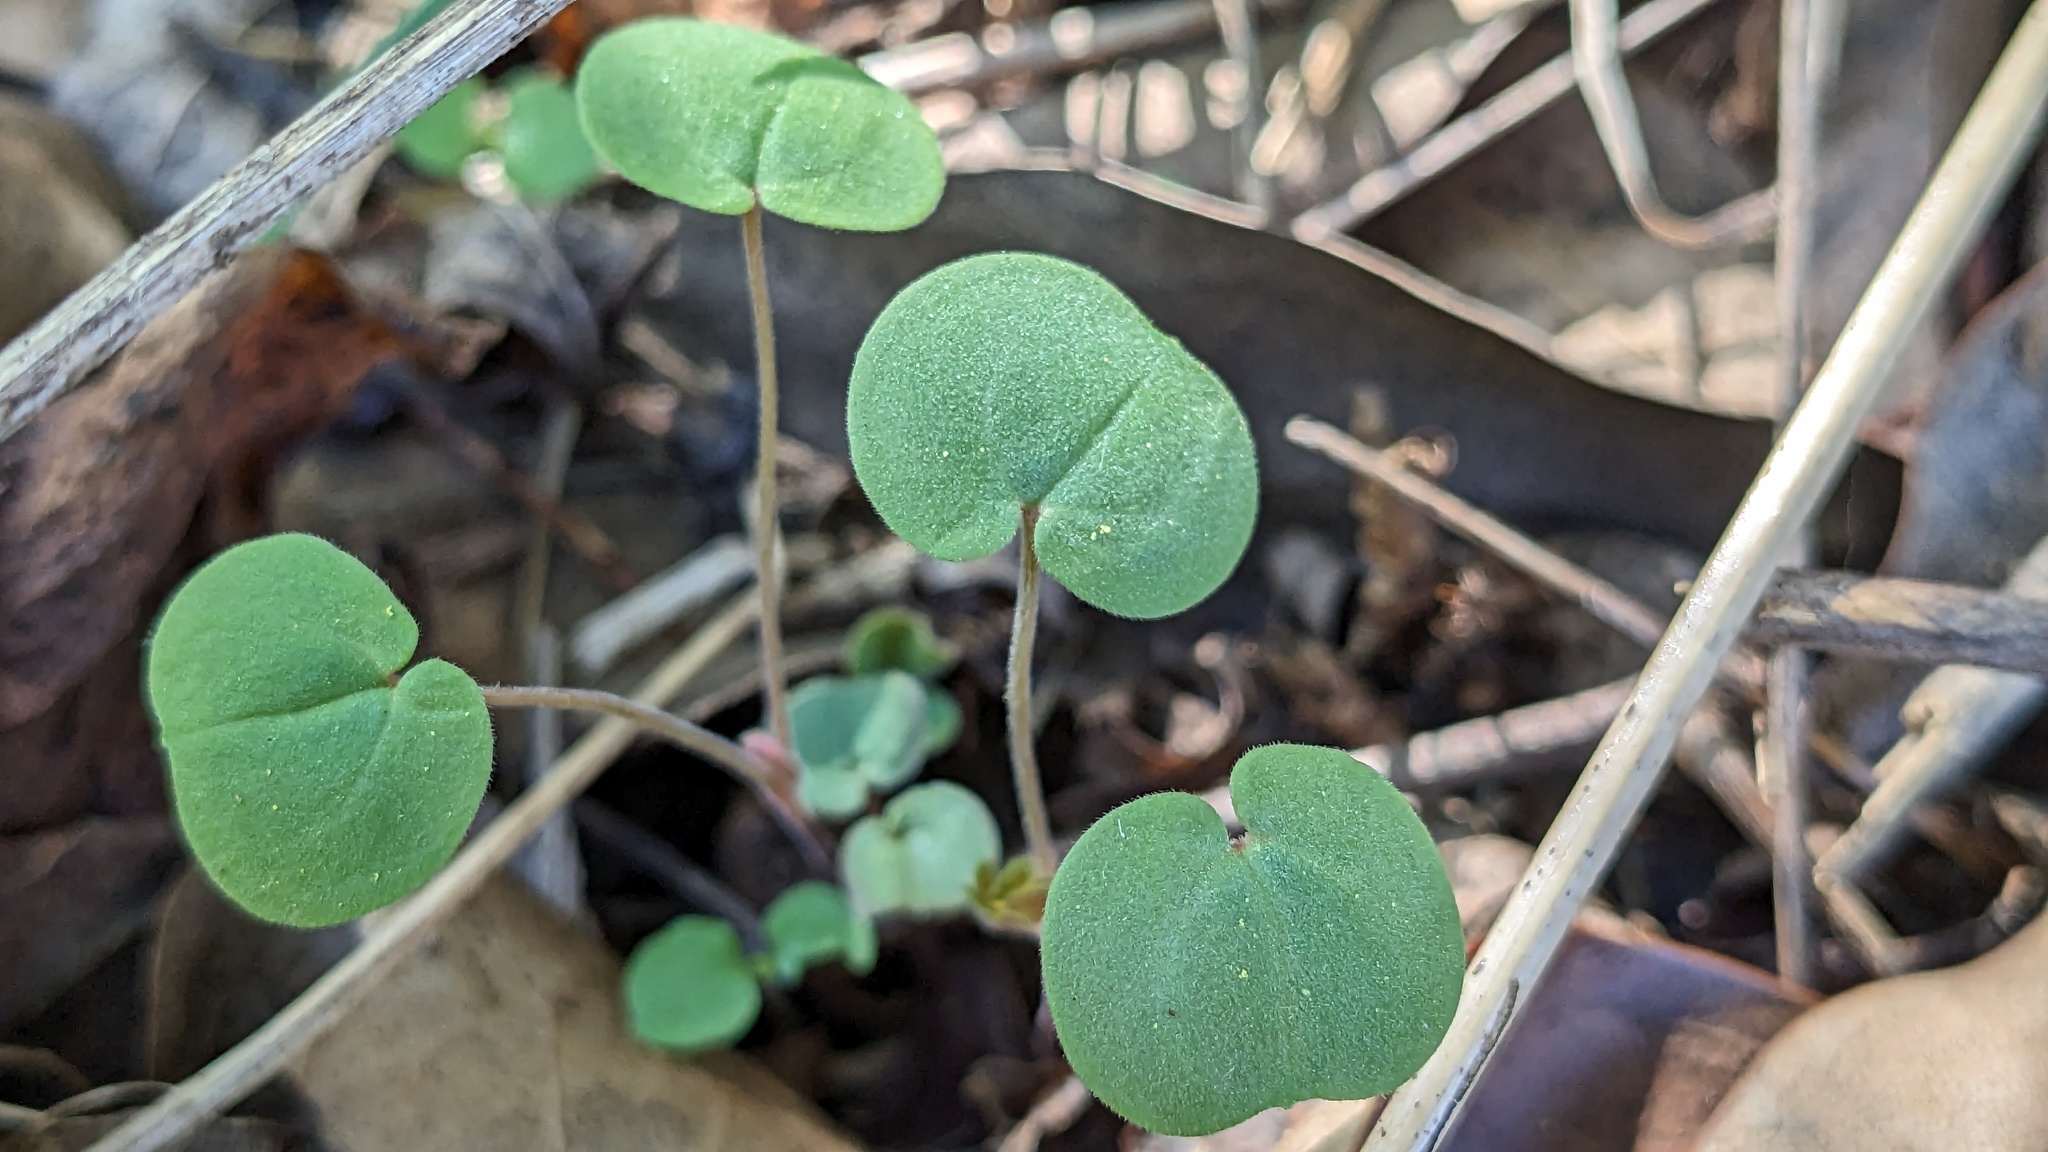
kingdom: Plantae
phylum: Tracheophyta
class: Magnoliopsida
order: Solanales
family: Convolvulaceae
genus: Dichondra
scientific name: Dichondra carolinensis
